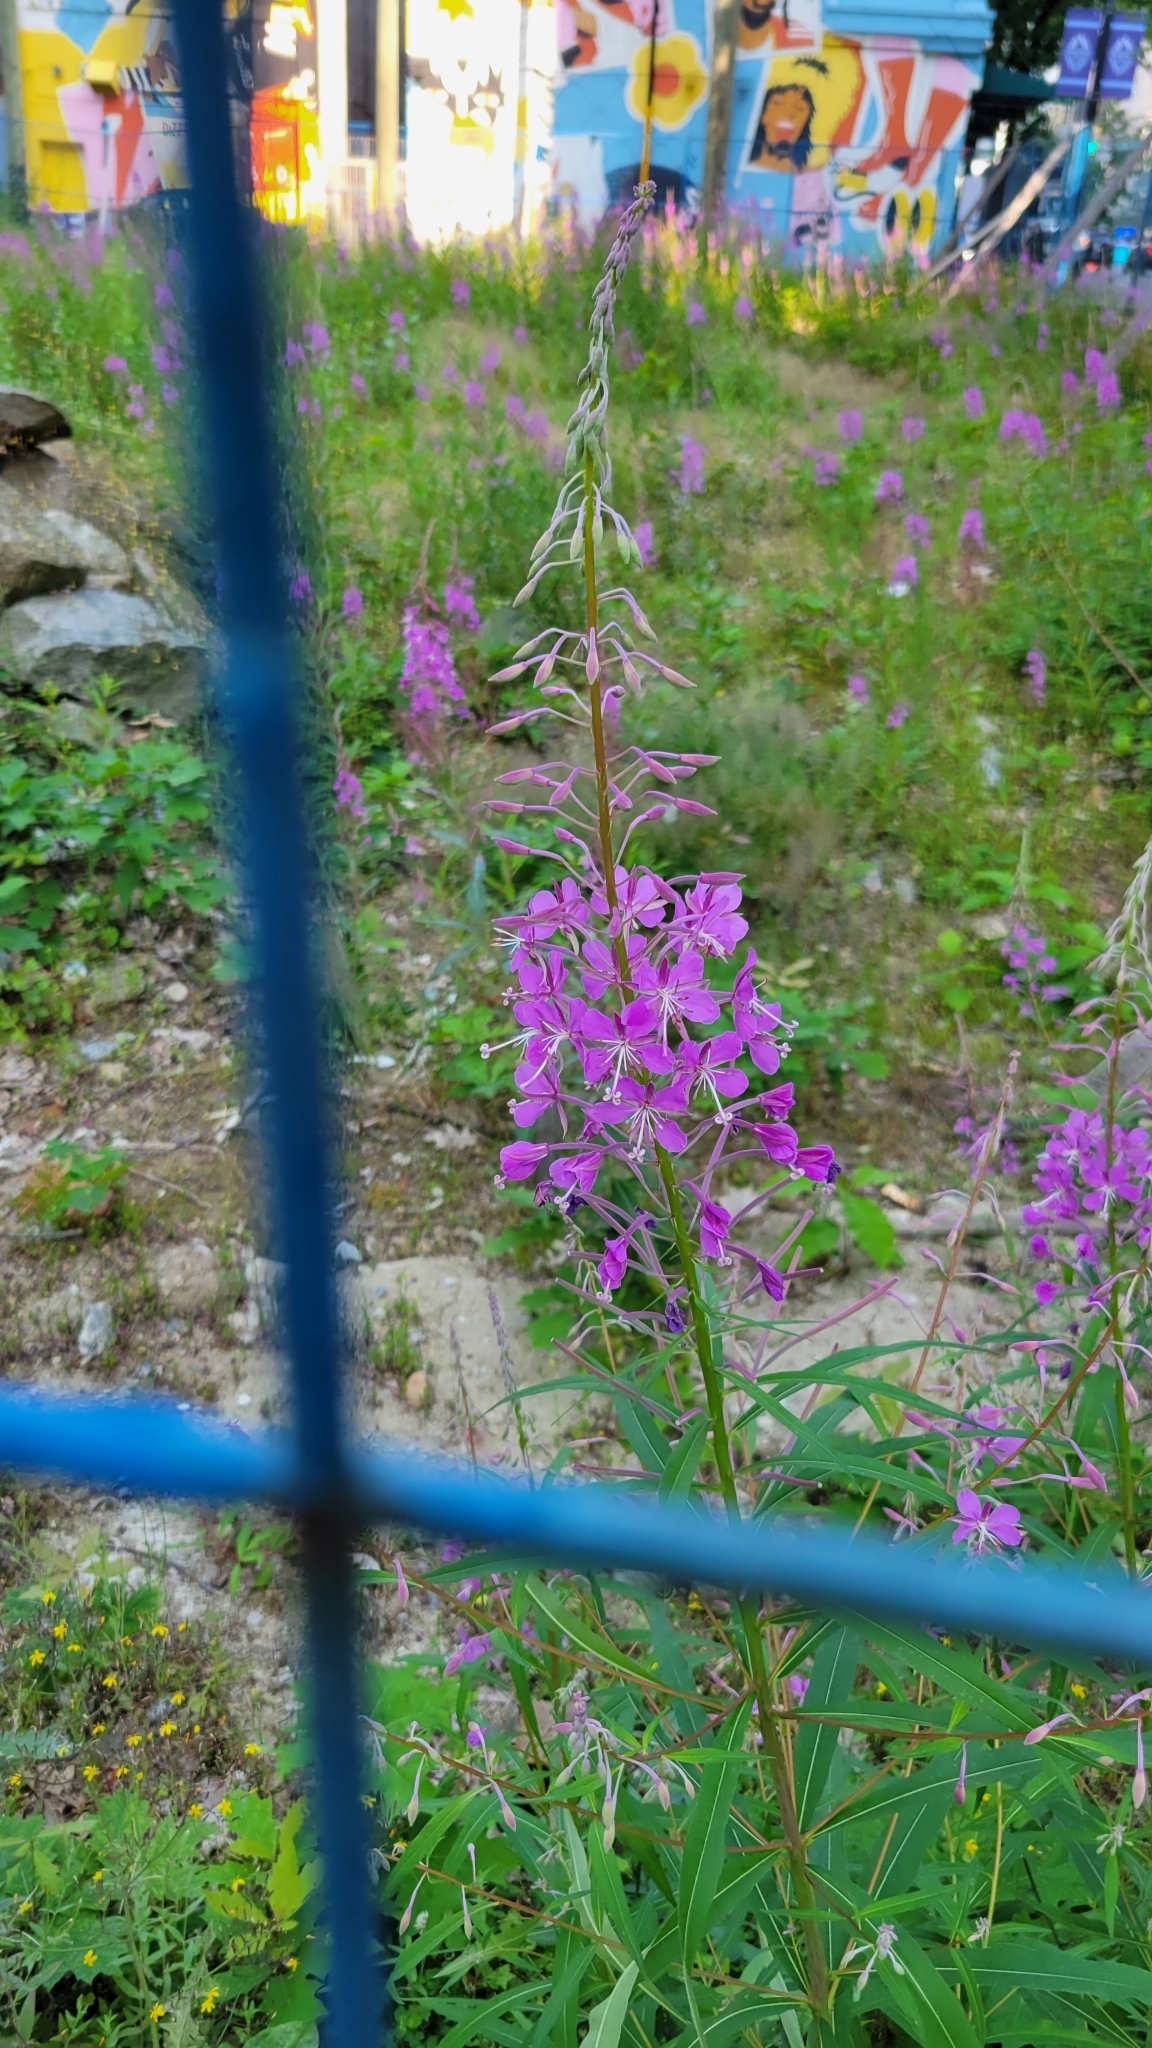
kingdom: Plantae
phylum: Tracheophyta
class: Magnoliopsida
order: Myrtales
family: Onagraceae
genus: Chamaenerion
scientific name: Chamaenerion angustifolium
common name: Fireweed
